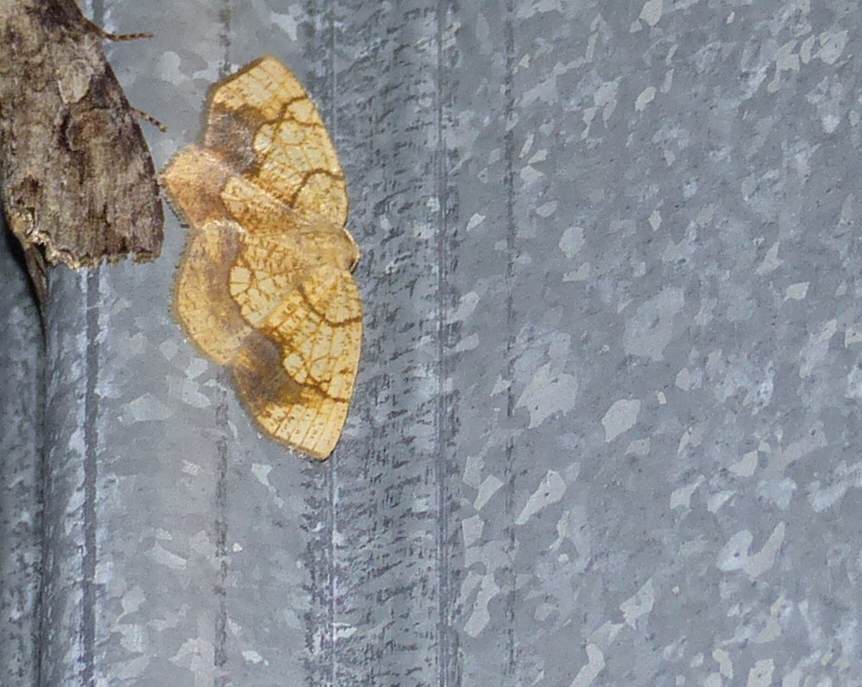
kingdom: Animalia
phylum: Arthropoda
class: Insecta
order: Lepidoptera
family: Geometridae
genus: Nematocampa
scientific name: Nematocampa resistaria
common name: Horned spanworm moth
